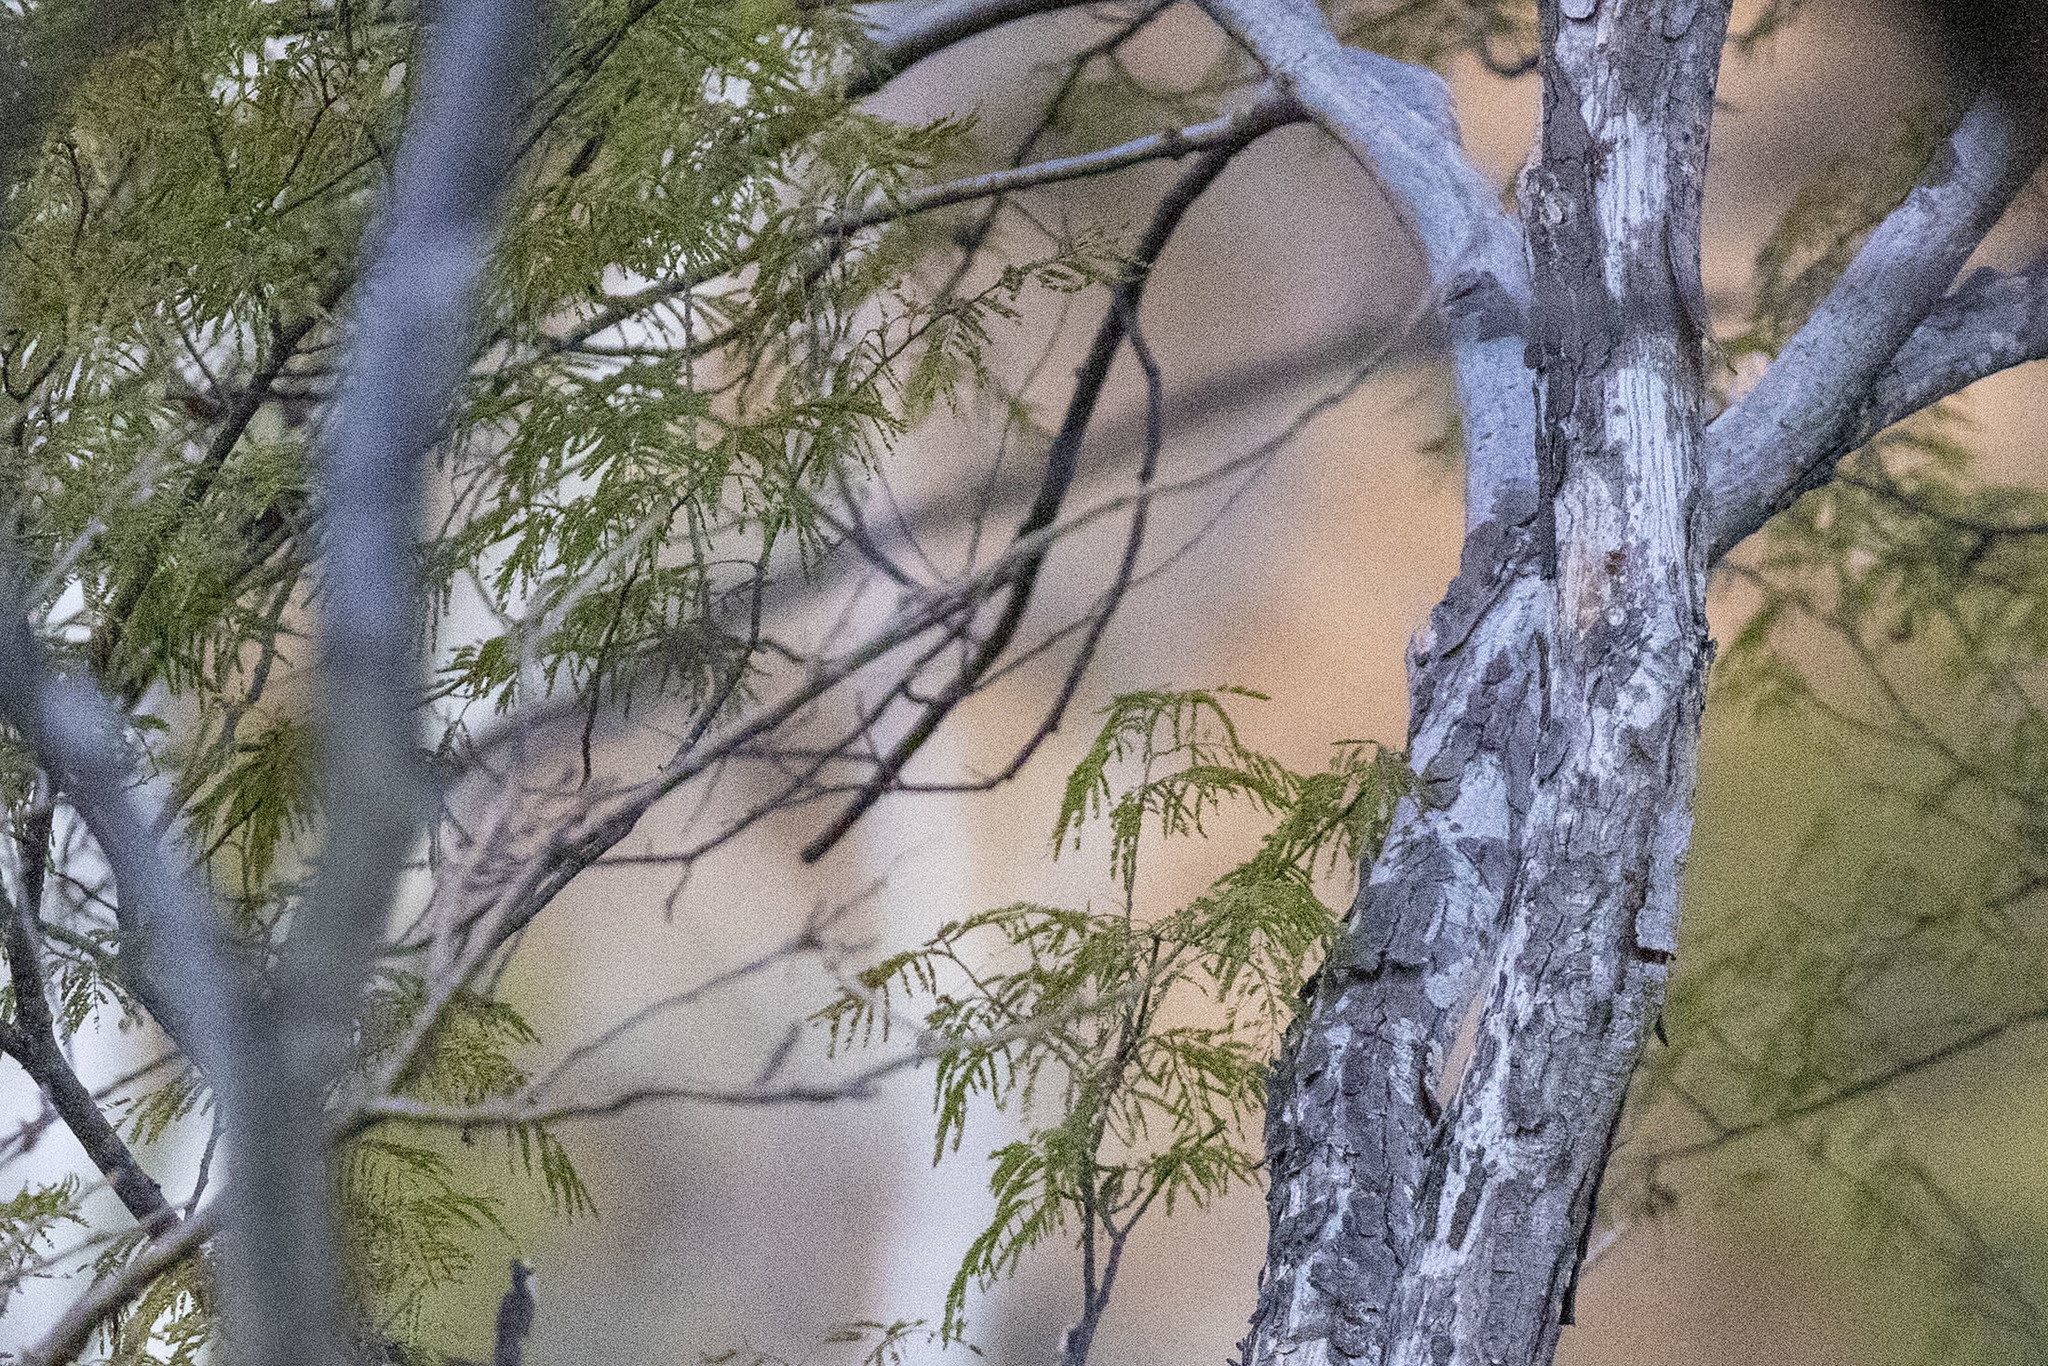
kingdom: Plantae
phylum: Tracheophyta
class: Magnoliopsida
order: Fabales
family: Fabaceae
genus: Lysiloma
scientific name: Lysiloma divaricatum
